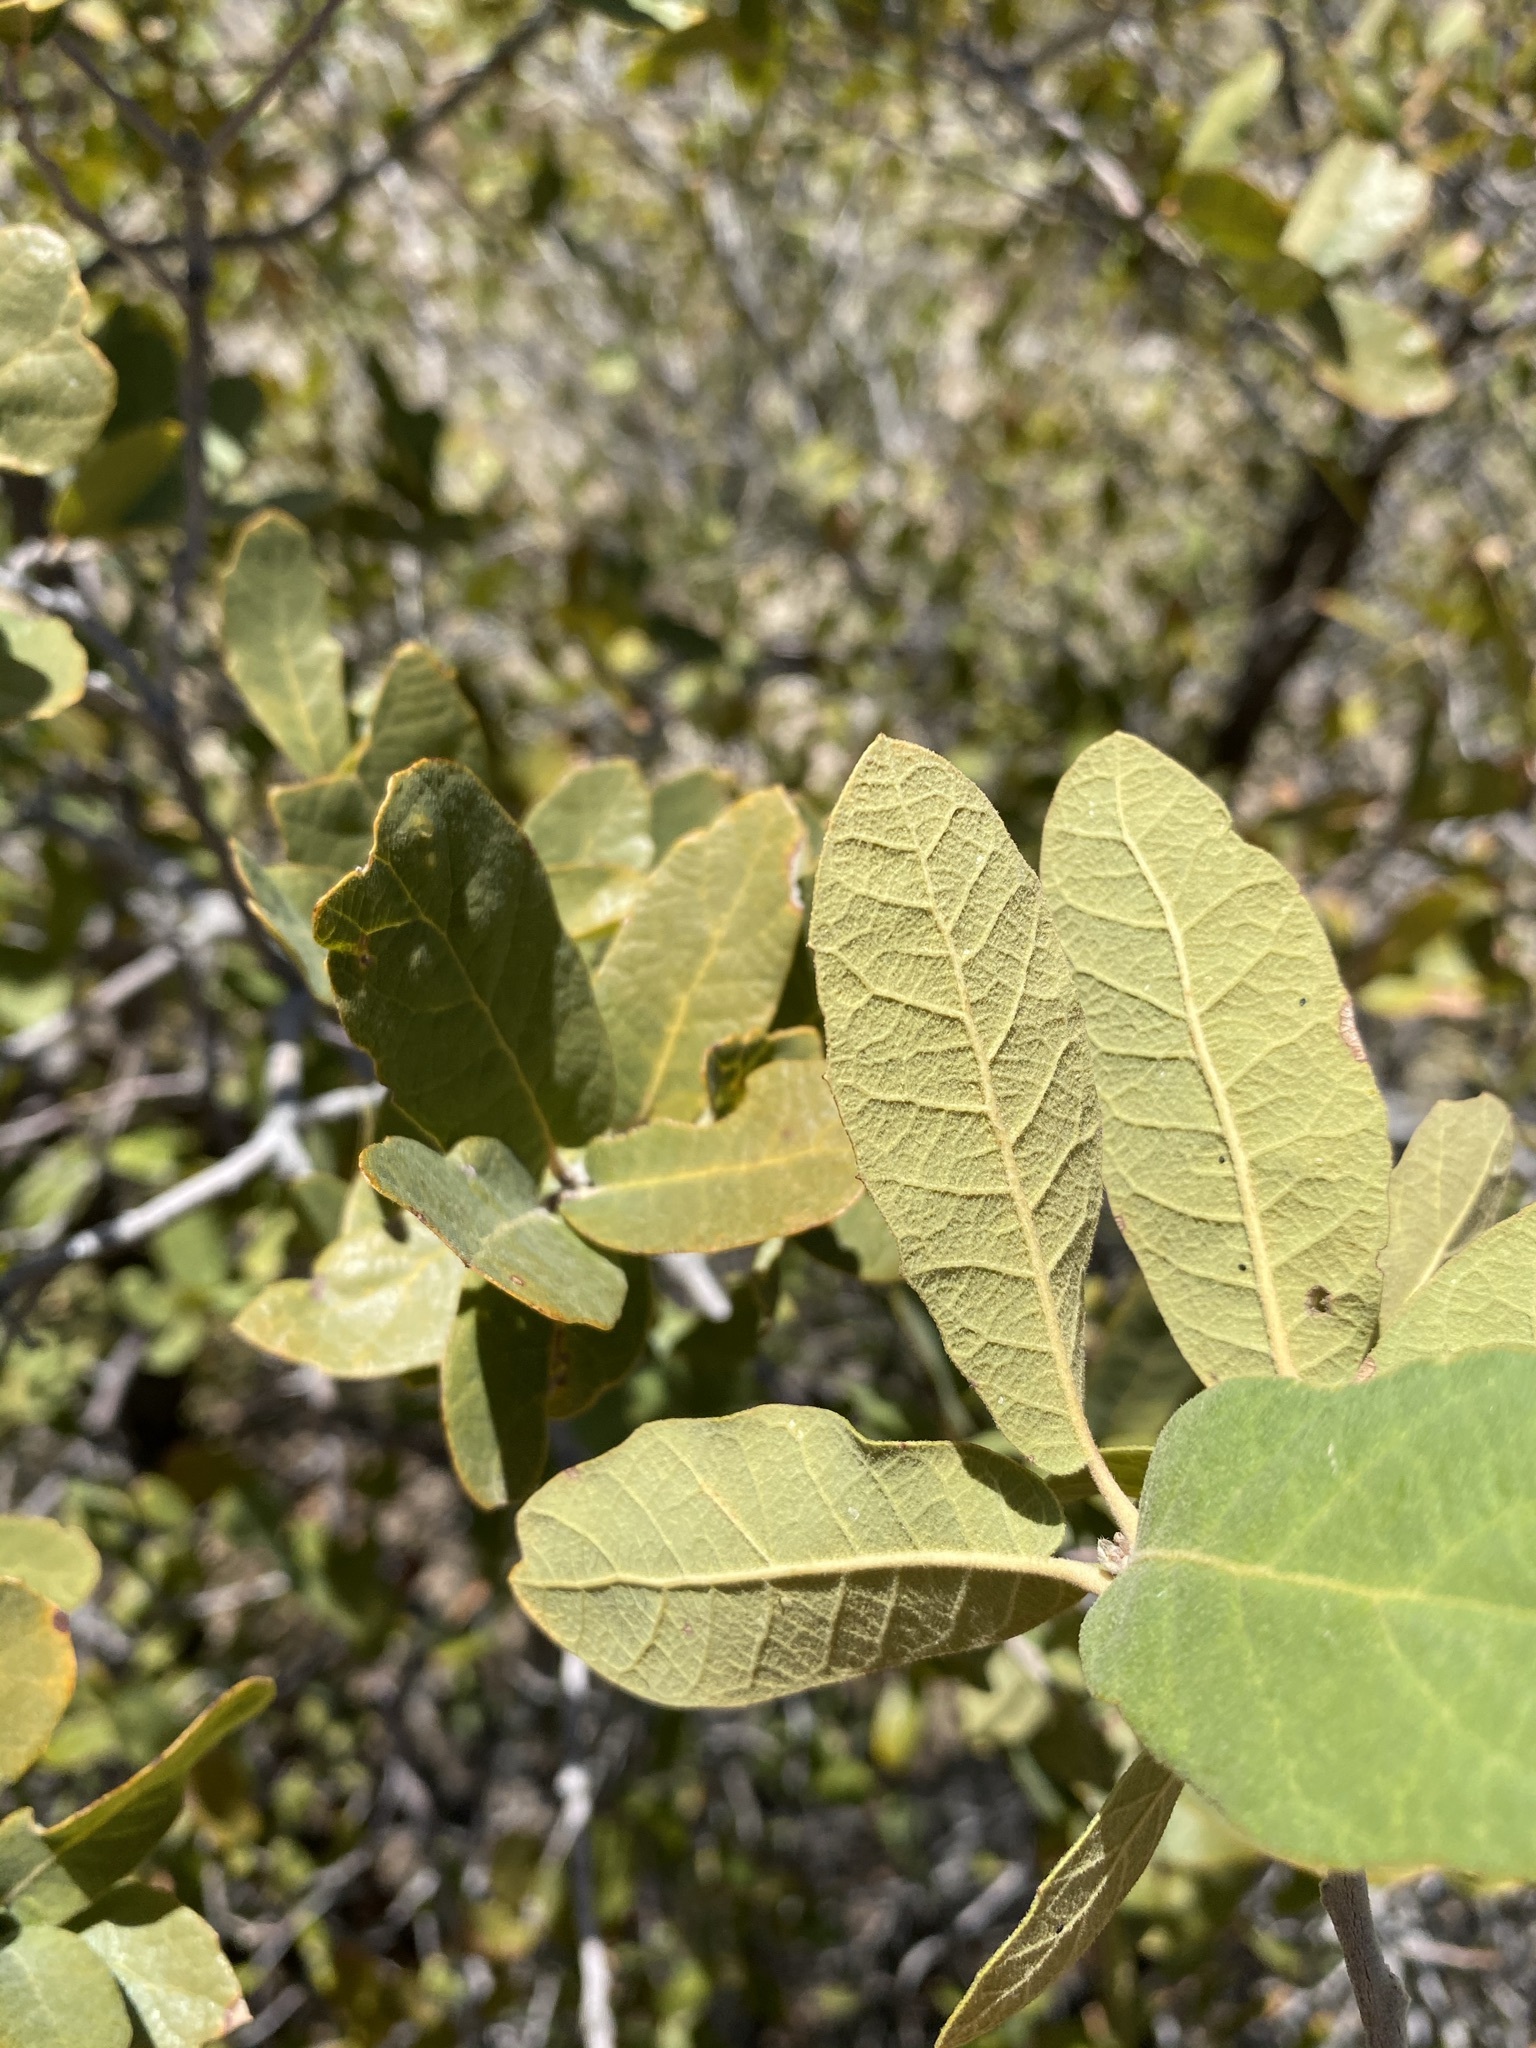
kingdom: Plantae
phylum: Tracheophyta
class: Magnoliopsida
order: Fagales
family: Fagaceae
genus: Quercus
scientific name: Quercus grisea
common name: Gray oak
